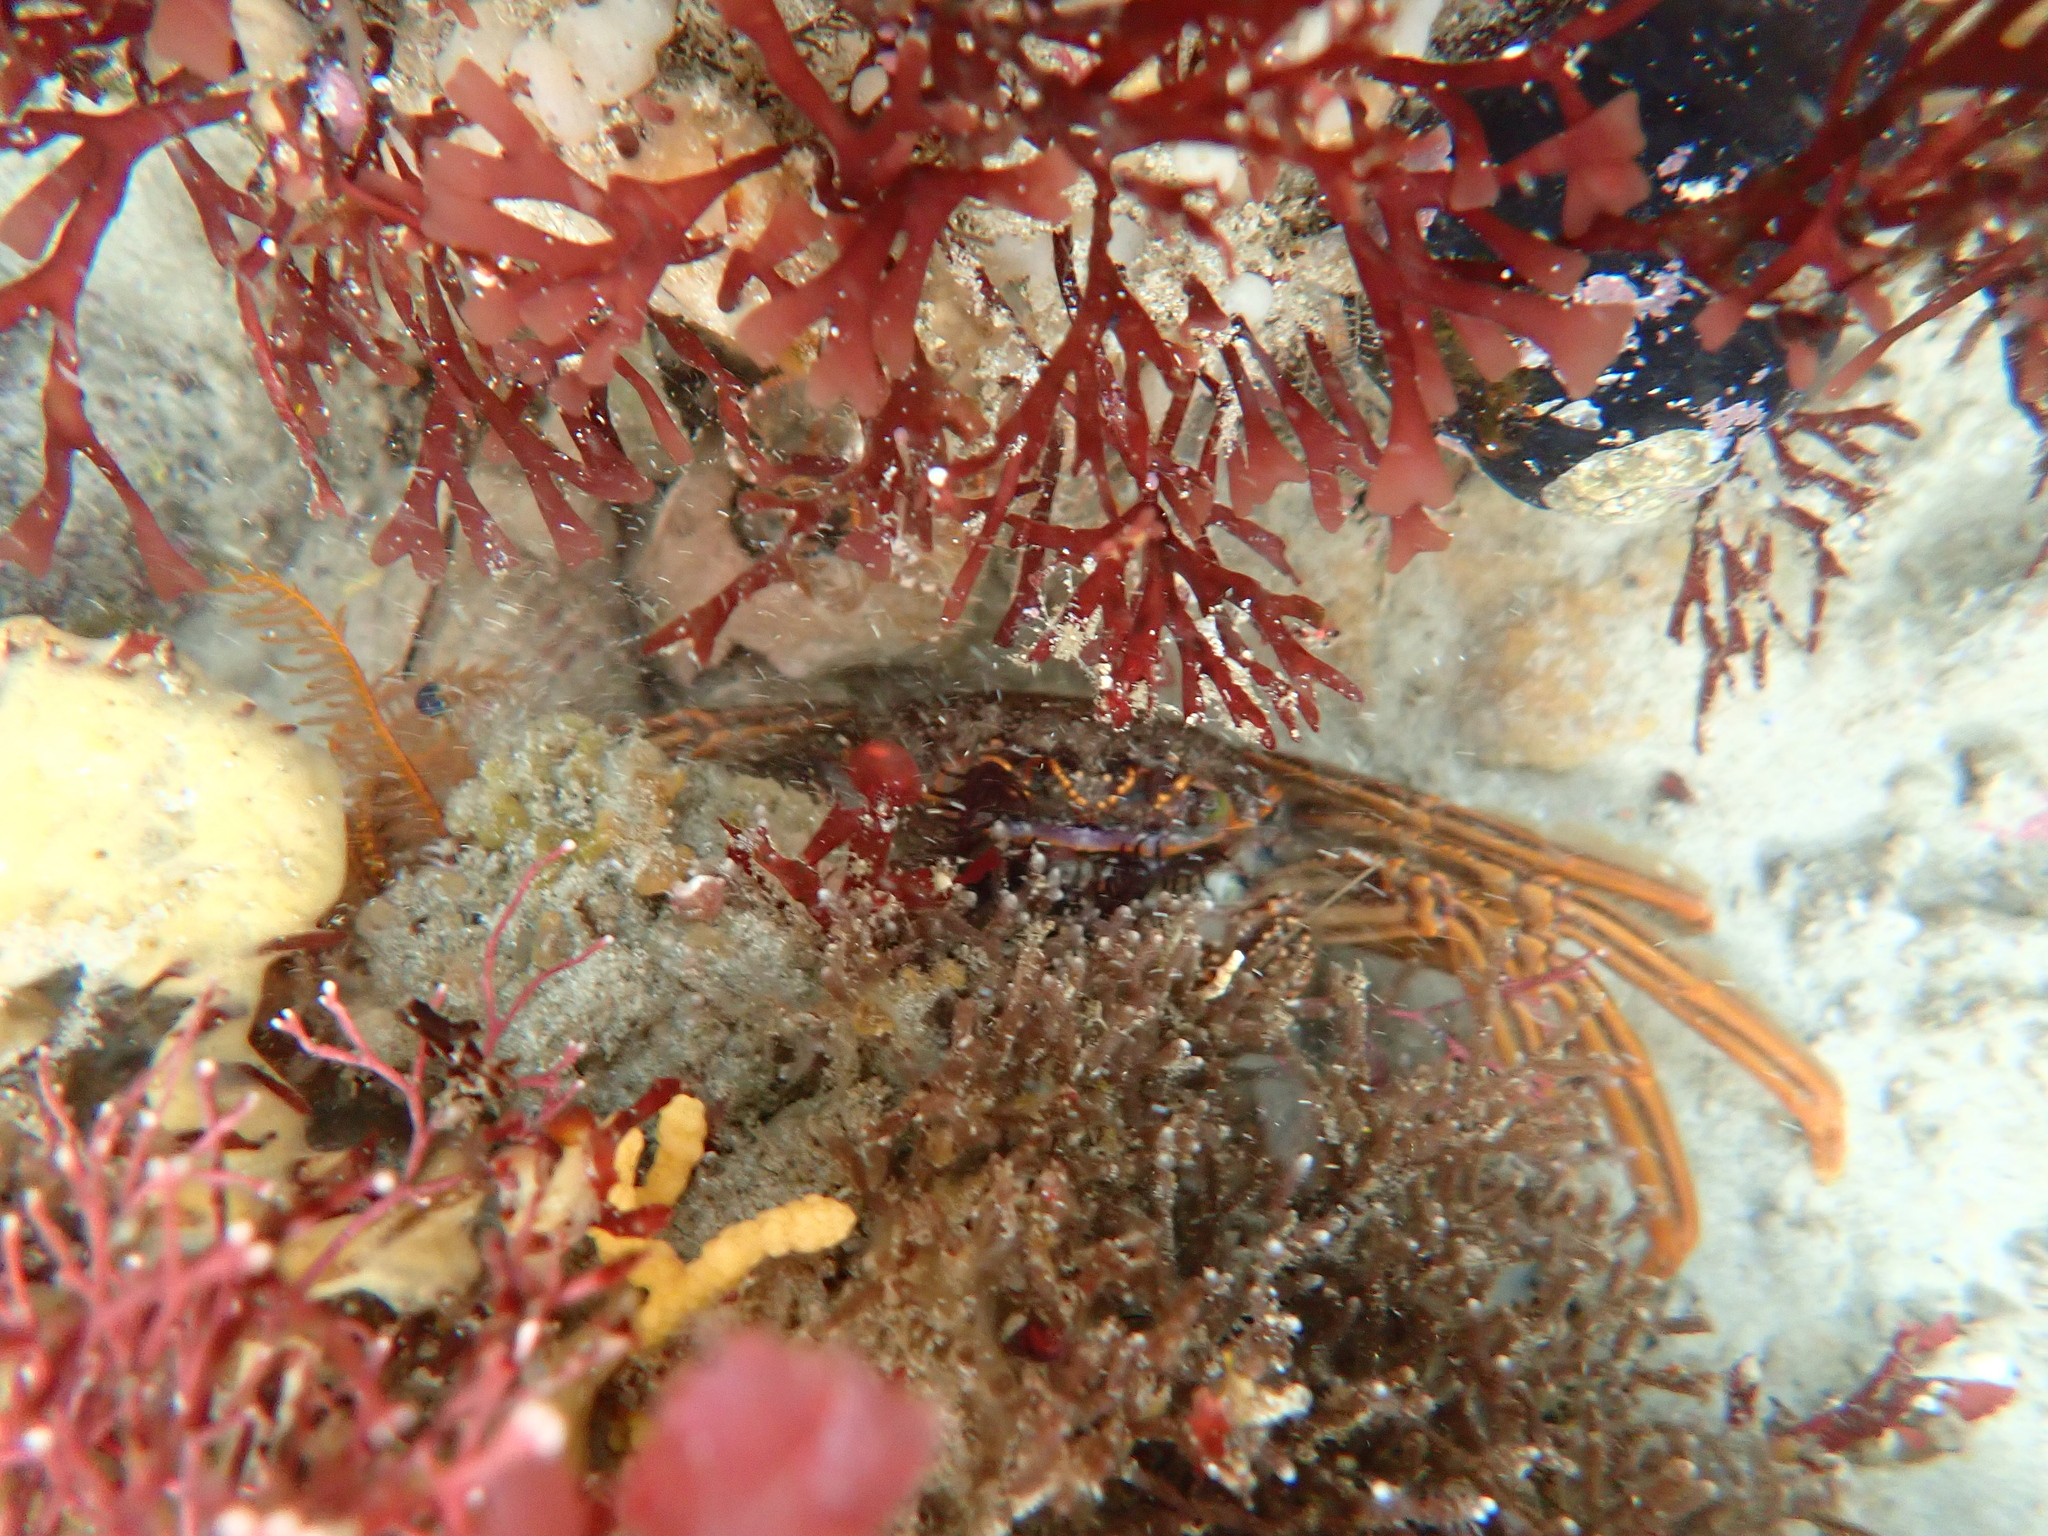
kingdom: Animalia
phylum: Arthropoda
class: Malacostraca
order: Decapoda
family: Plagusiidae
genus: Guinusia
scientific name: Guinusia chabrus
